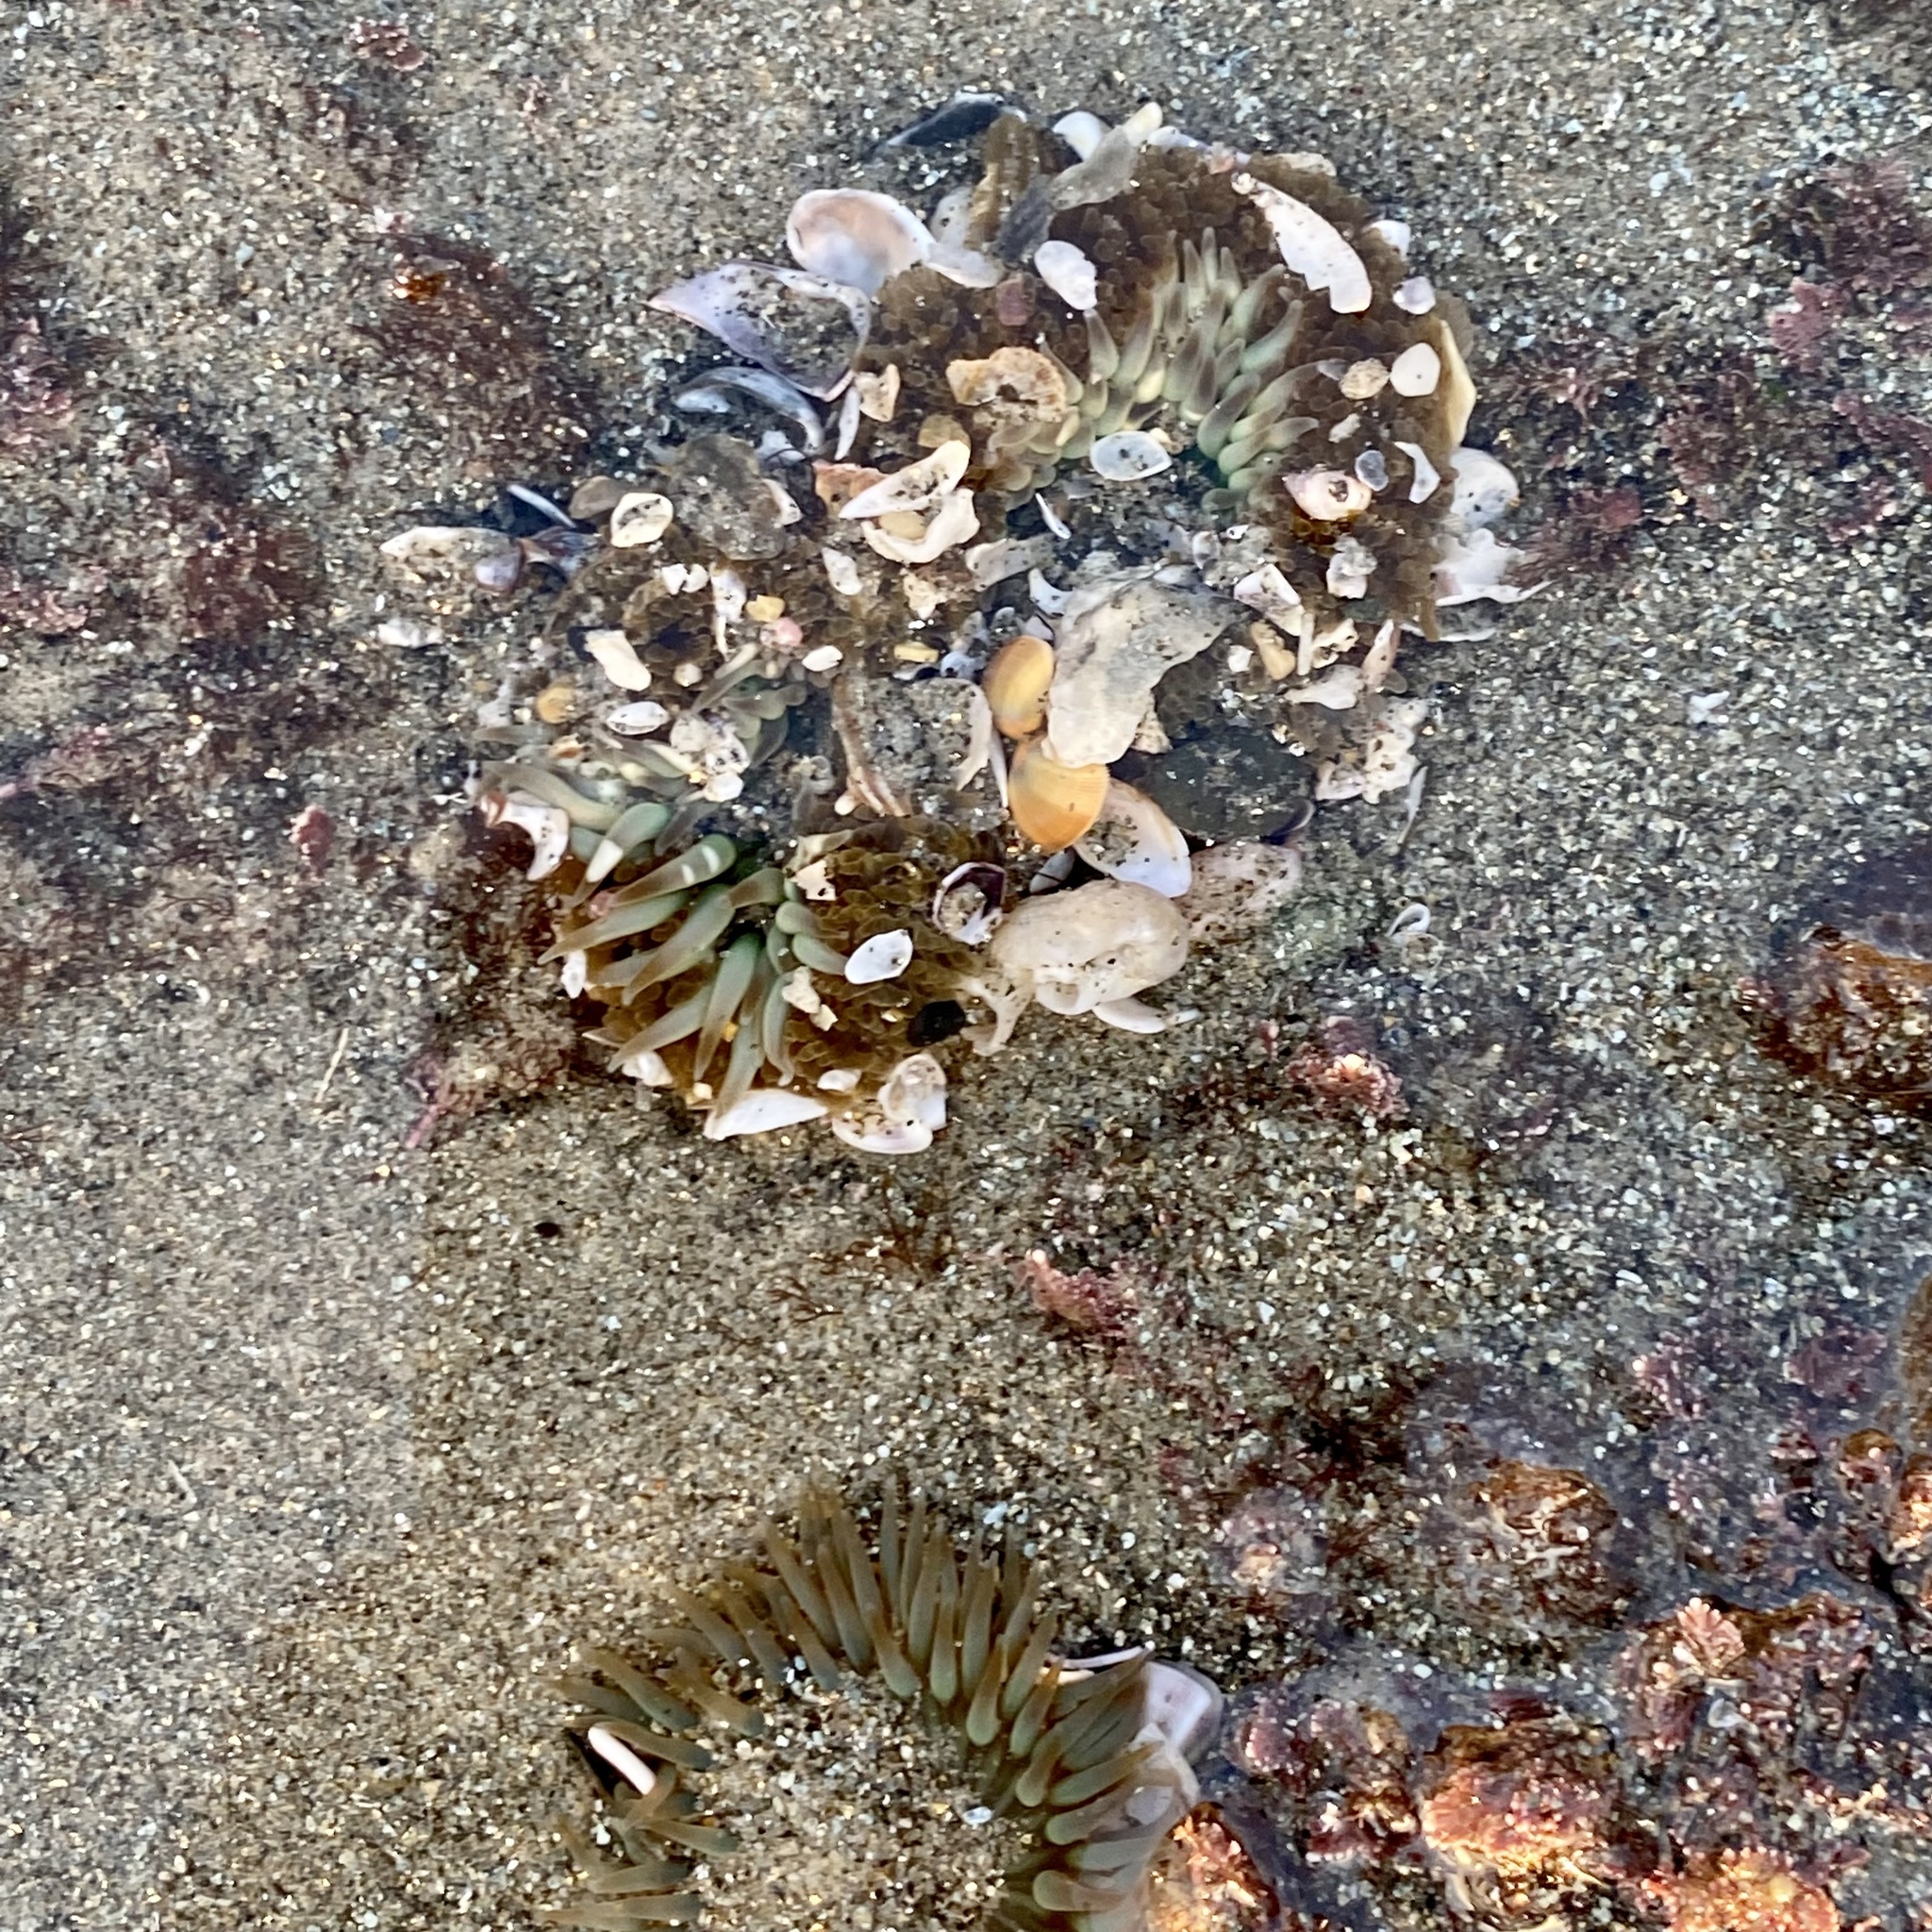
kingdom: Animalia
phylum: Cnidaria
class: Anthozoa
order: Actiniaria
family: Actiniidae
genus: Anthopleura
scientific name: Anthopleura sola
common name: Sun anemone
